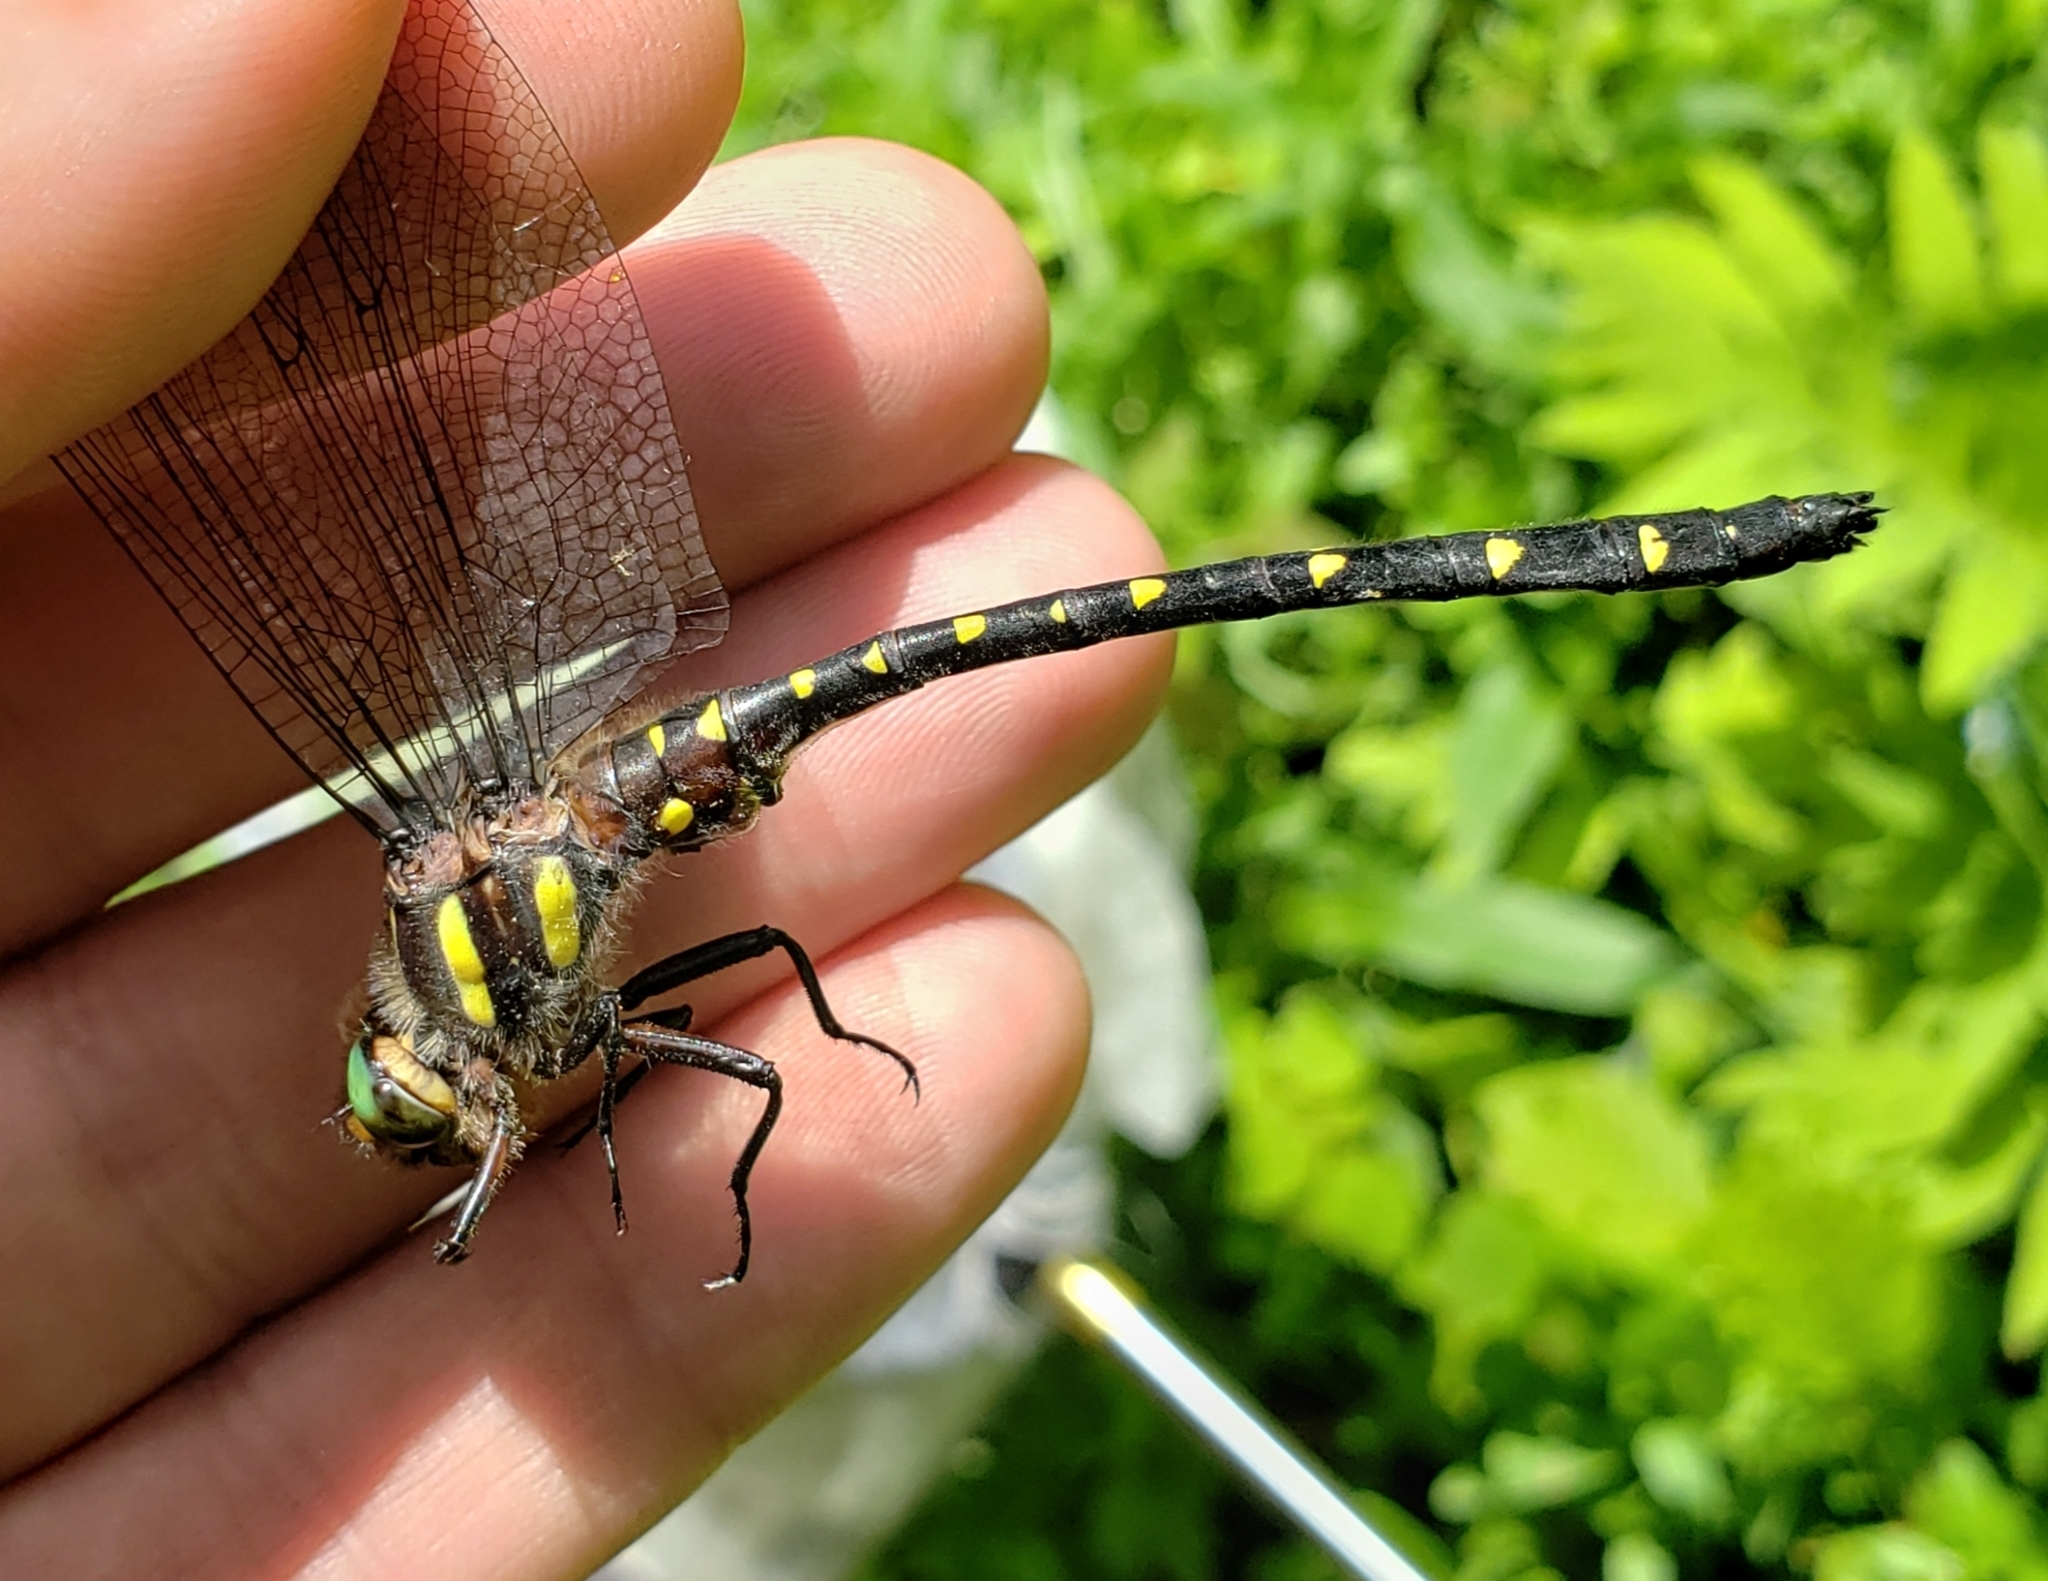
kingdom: Animalia
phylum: Arthropoda
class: Insecta
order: Odonata
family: Cordulegastridae
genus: Cordulegaster
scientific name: Cordulegaster maculata
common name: Twin-spotted spiketail
